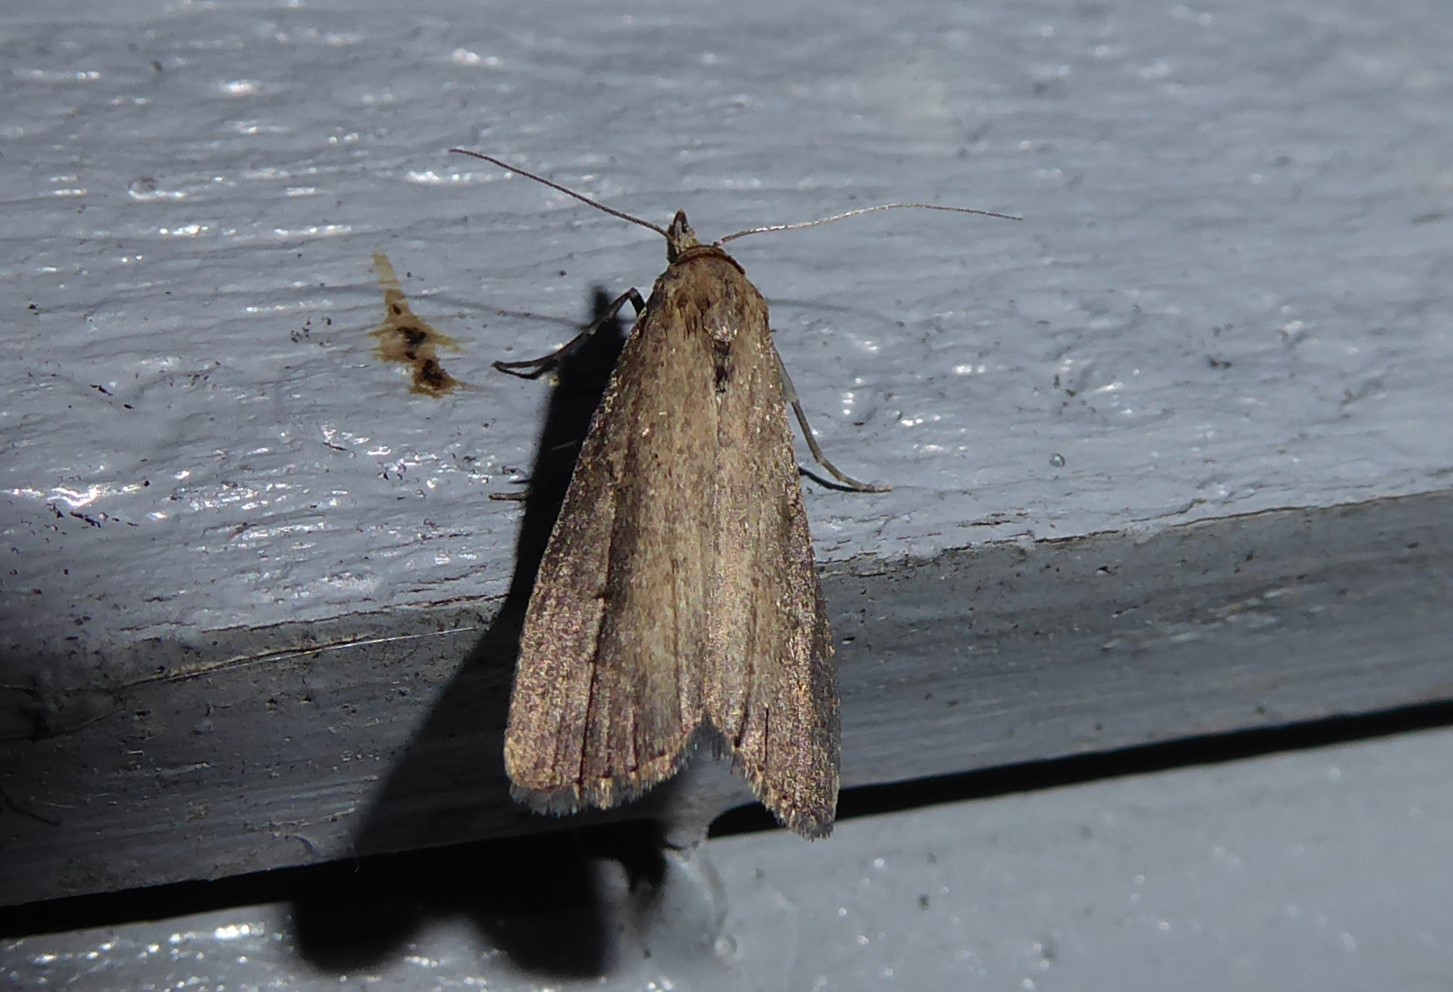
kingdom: Animalia
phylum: Arthropoda
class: Insecta
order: Lepidoptera
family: Erebidae
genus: Schrankia
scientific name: Schrankia costaestrigalis
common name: Pinion-streaked snout
